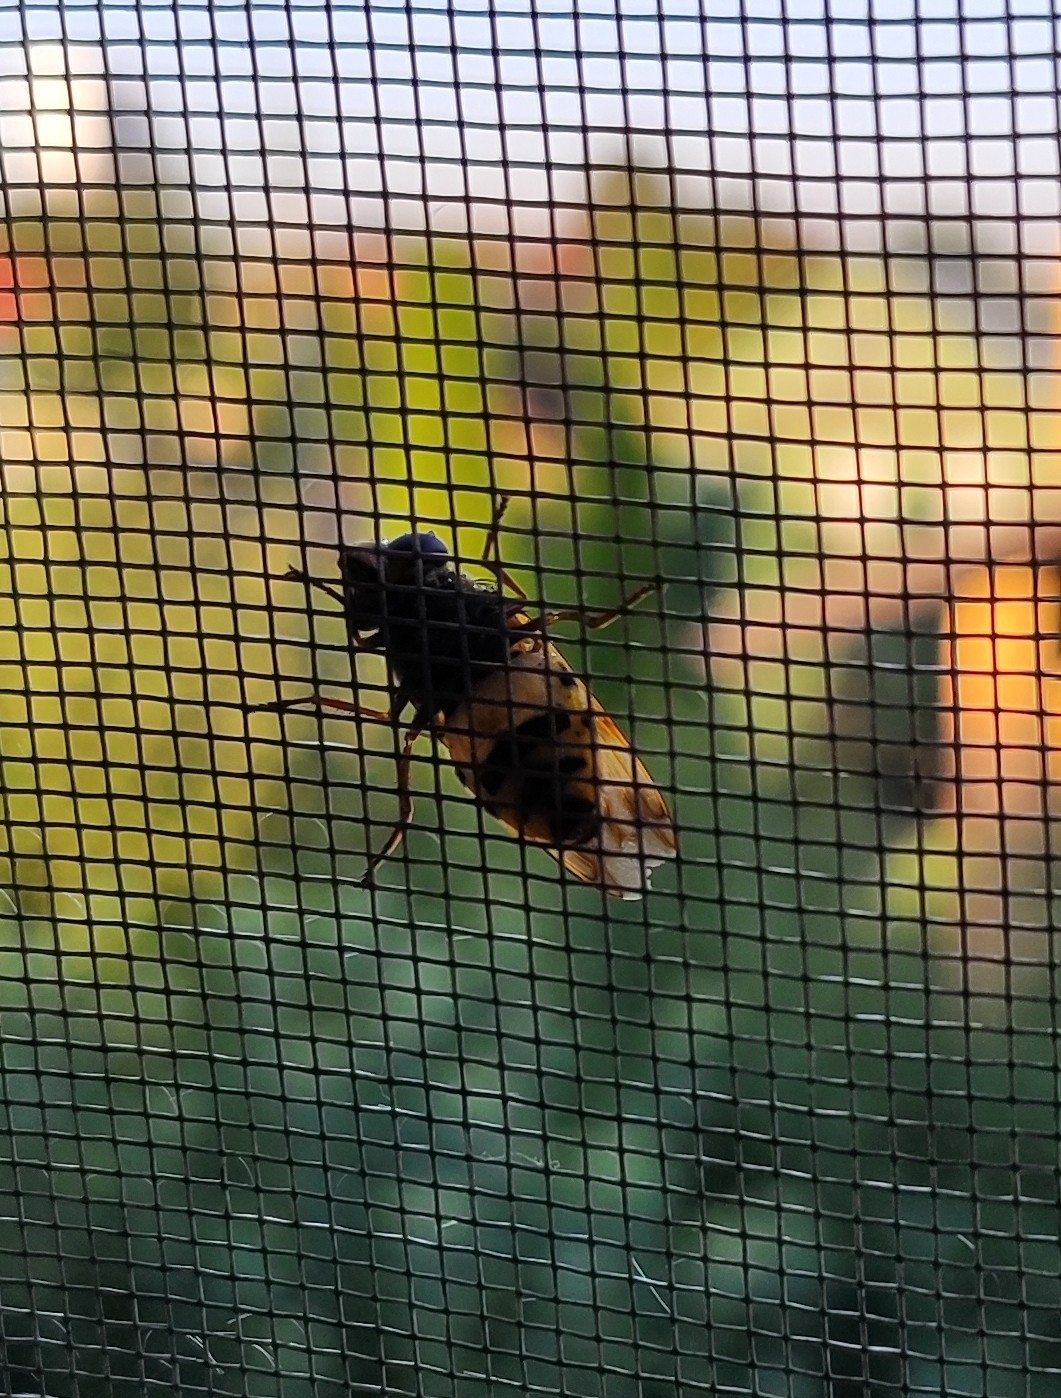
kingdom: Animalia
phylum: Arthropoda
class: Insecta
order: Diptera
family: Syrphidae
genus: Volucella
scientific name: Volucella inanis
